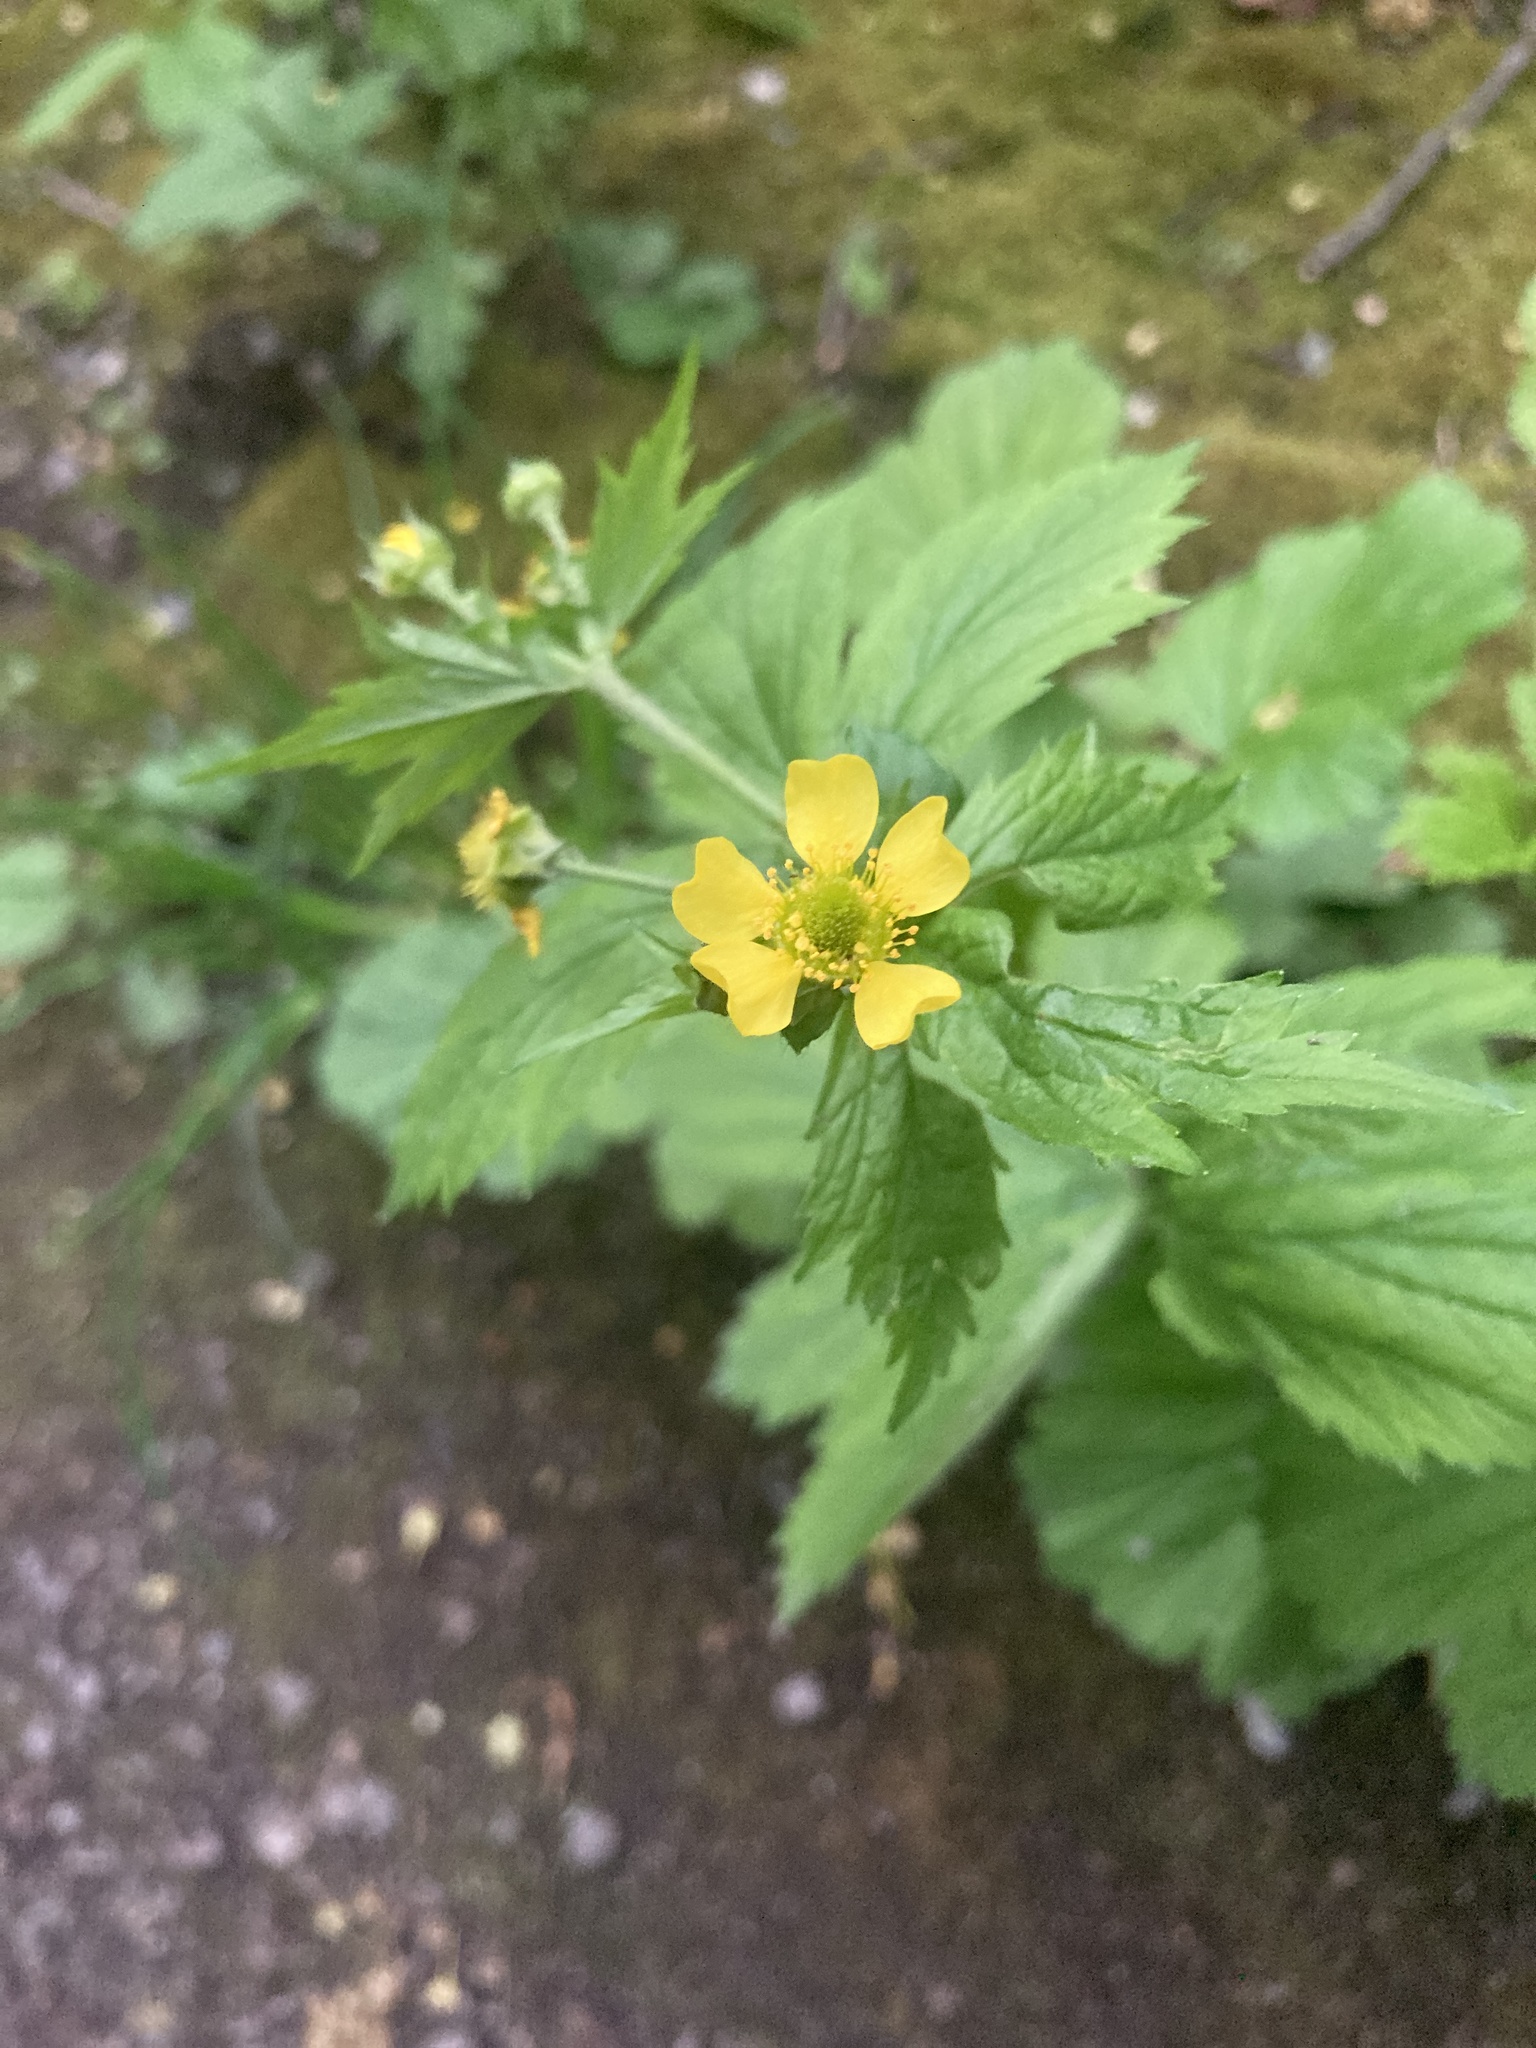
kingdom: Plantae
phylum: Tracheophyta
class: Magnoliopsida
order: Rosales
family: Rosaceae
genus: Geum
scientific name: Geum macrophyllum
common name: Large-leaved avens
